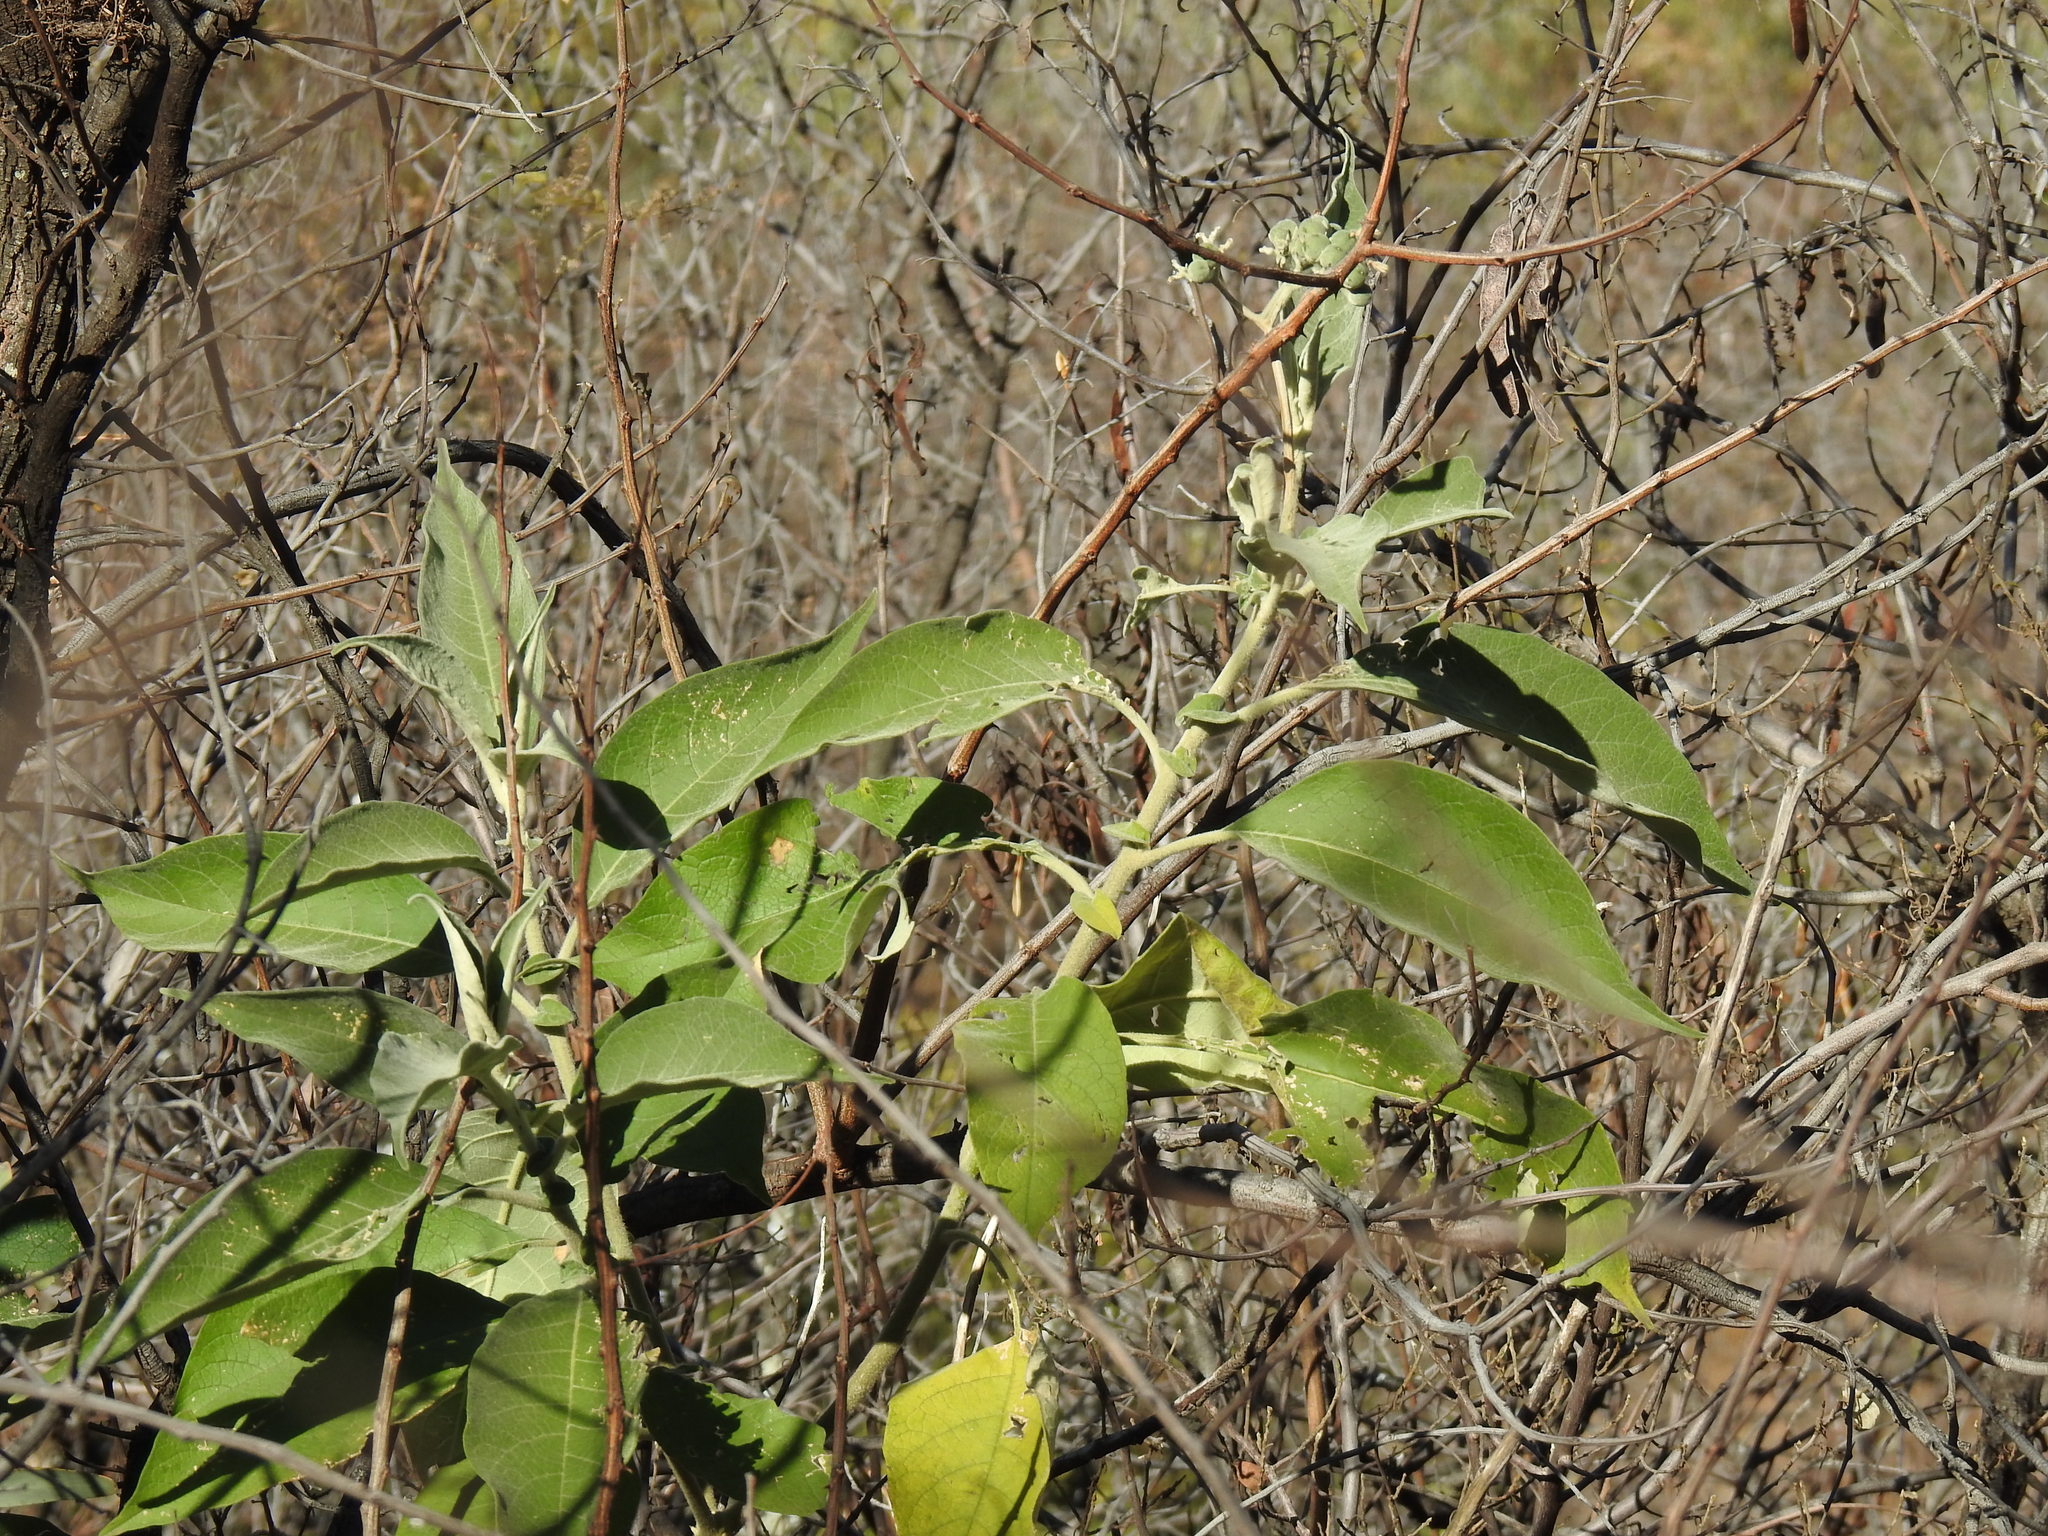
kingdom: Plantae
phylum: Tracheophyta
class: Magnoliopsida
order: Solanales
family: Solanaceae
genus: Solanum
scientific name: Solanum mauritianum
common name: Earleaf nightshade
